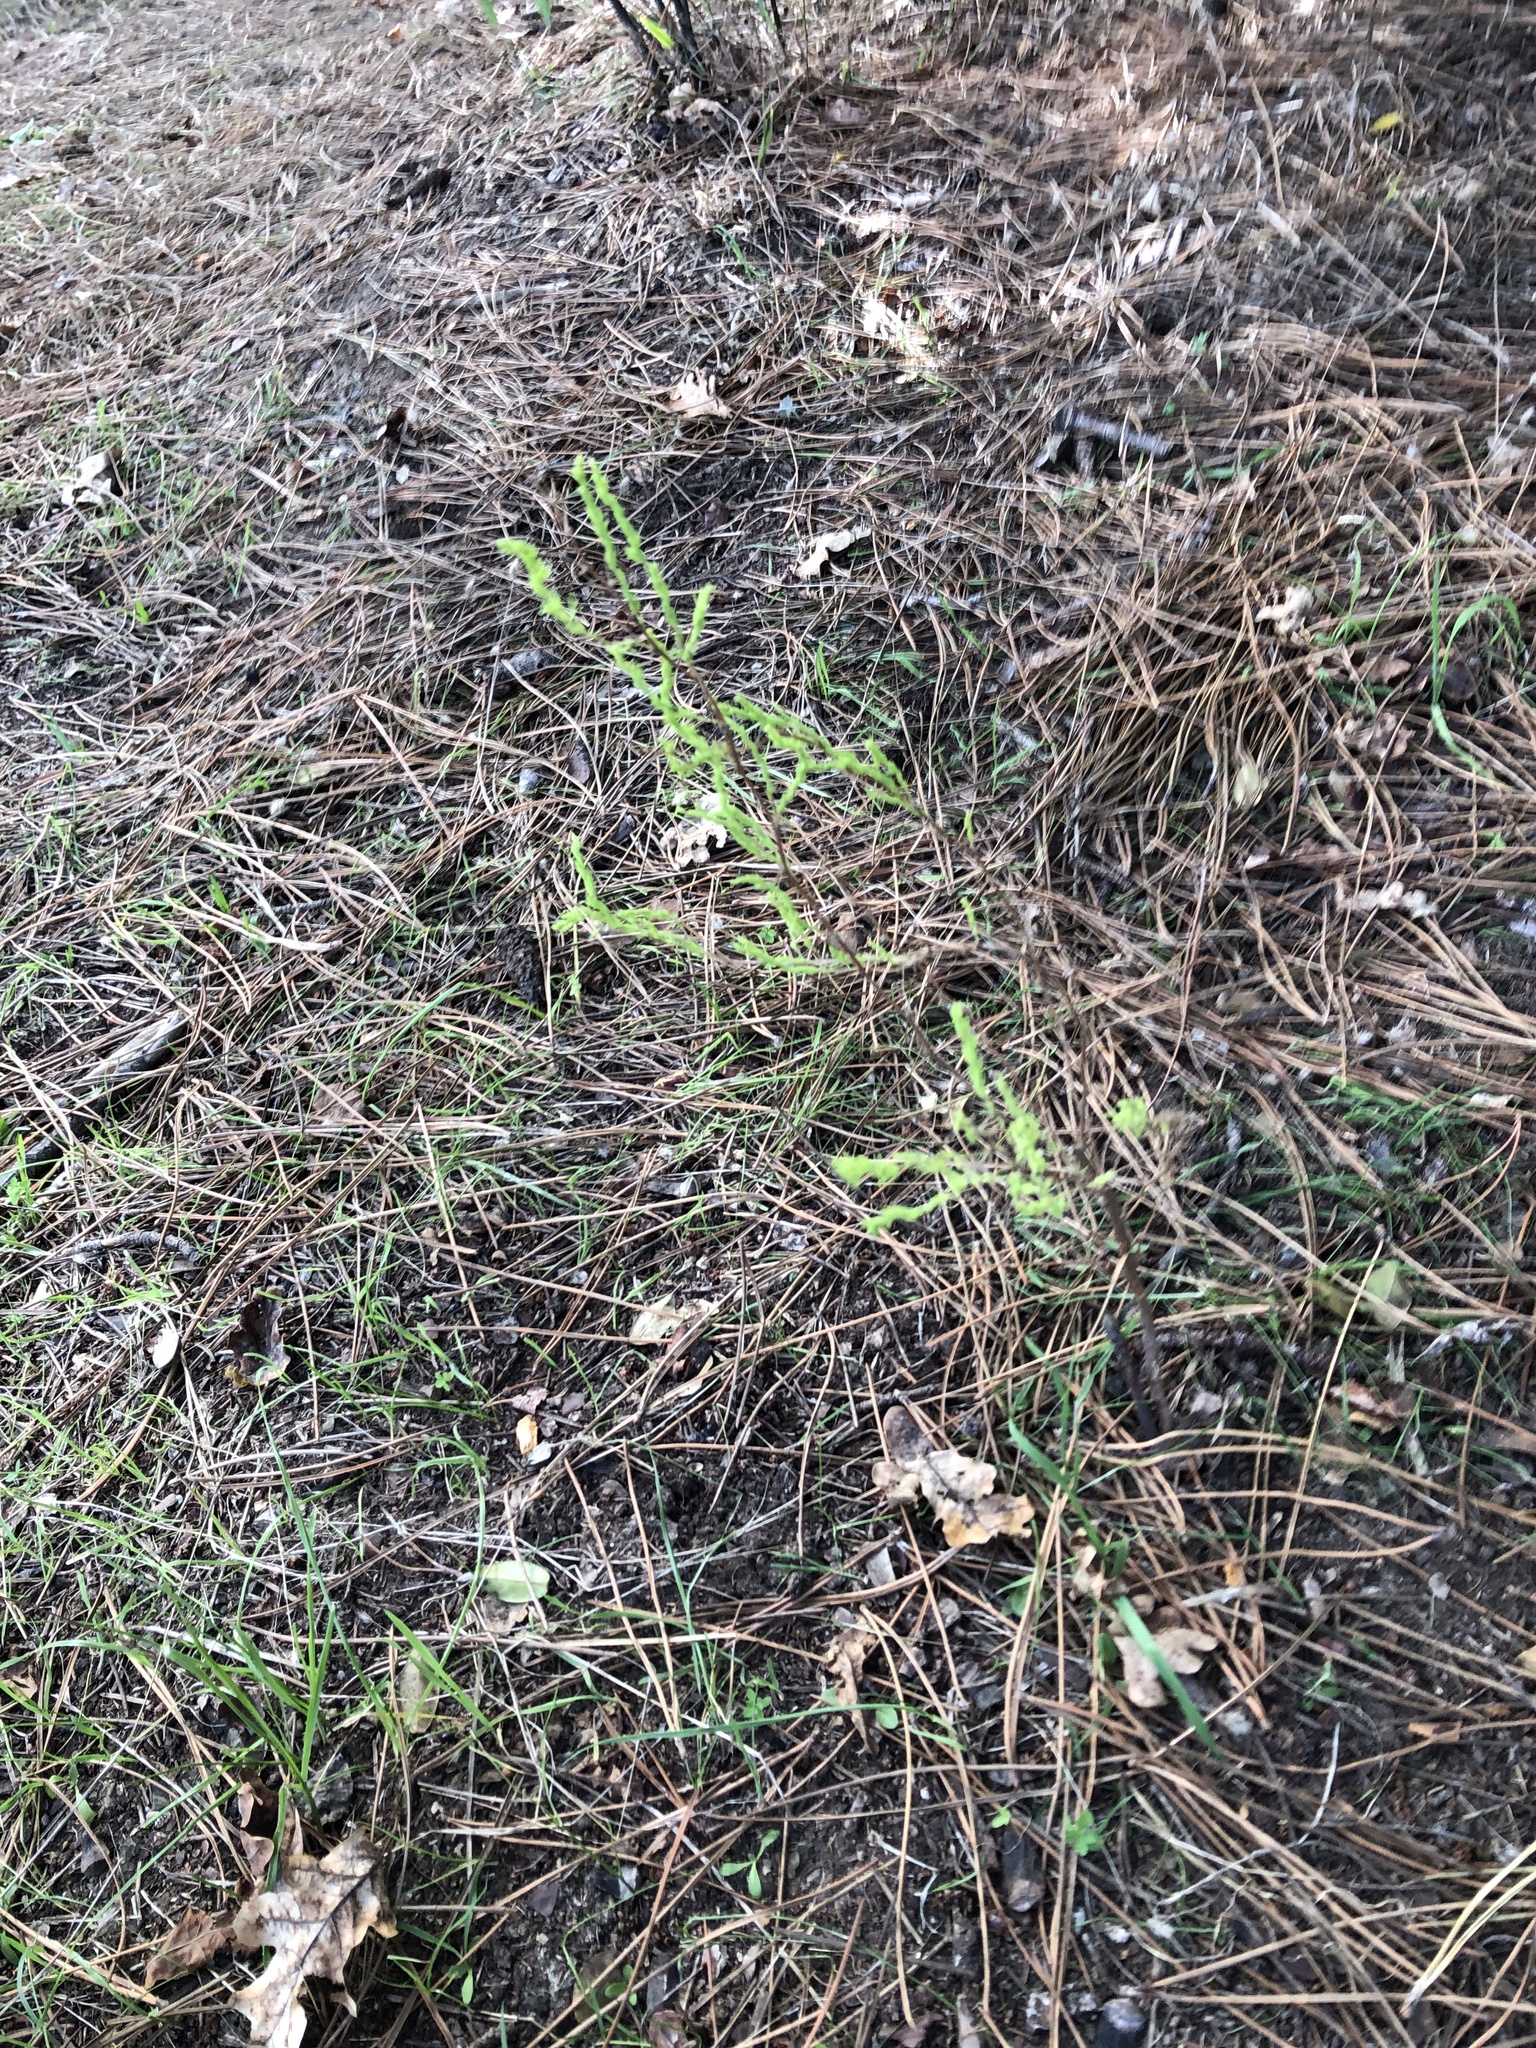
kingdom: Plantae
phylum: Tracheophyta
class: Liliopsida
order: Asparagales
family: Asparagaceae
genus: Asparagus
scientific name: Asparagus rubicundus
